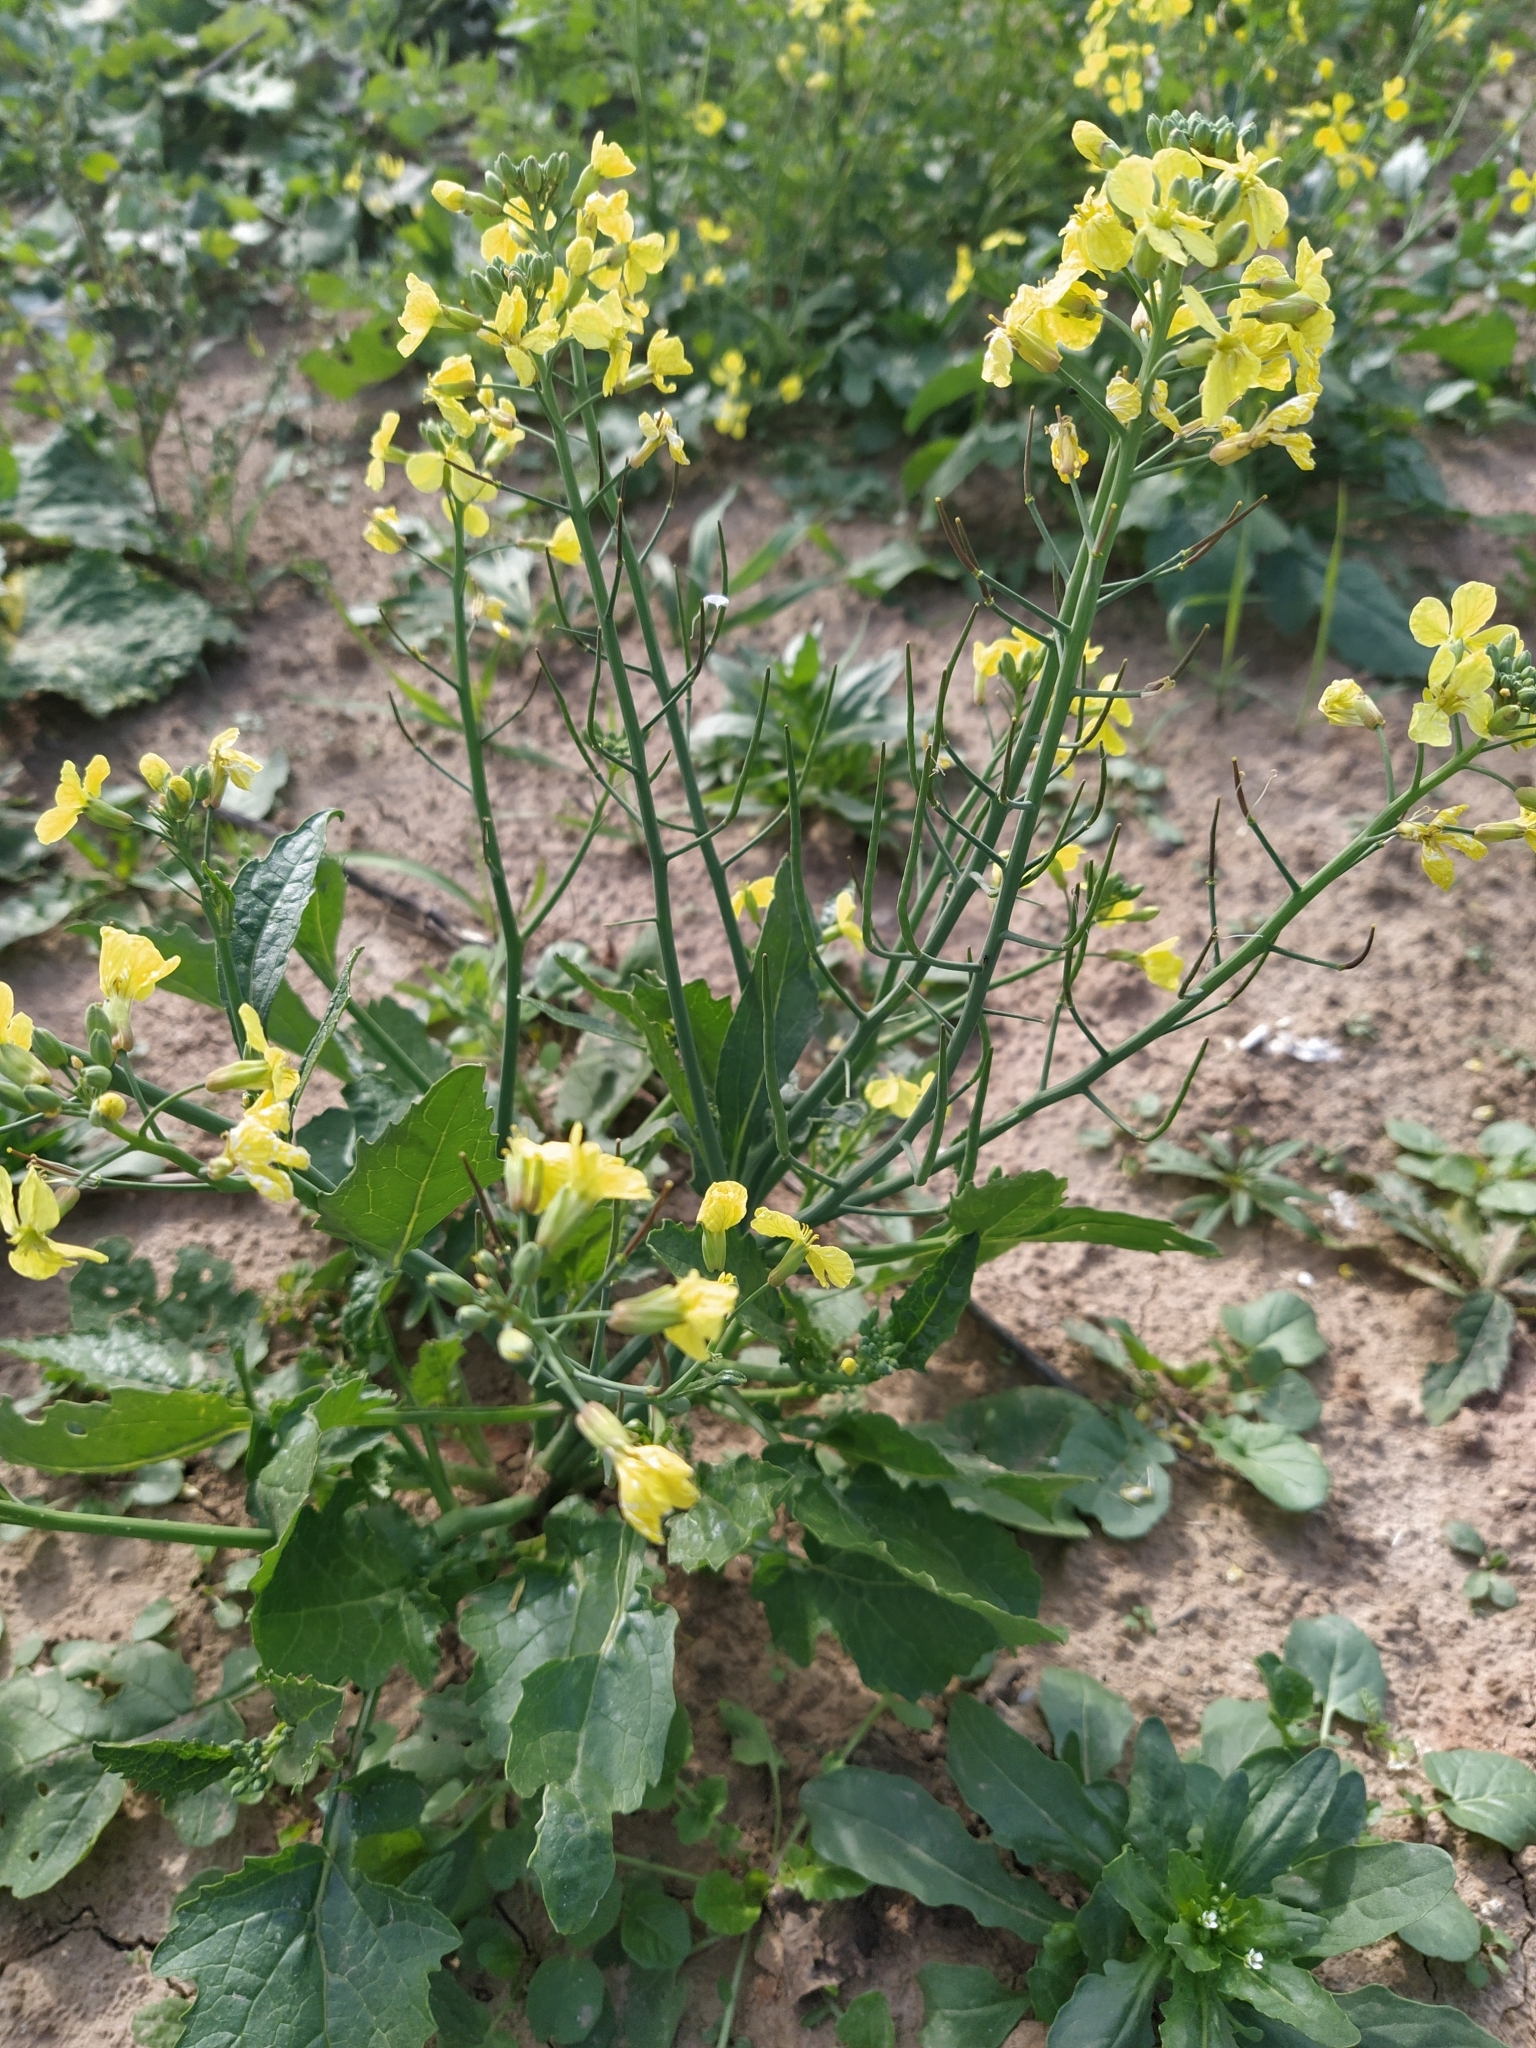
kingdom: Plantae
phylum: Tracheophyta
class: Magnoliopsida
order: Brassicales
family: Brassicaceae
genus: Raphanus
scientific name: Raphanus raphanistrum
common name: Wild radish
